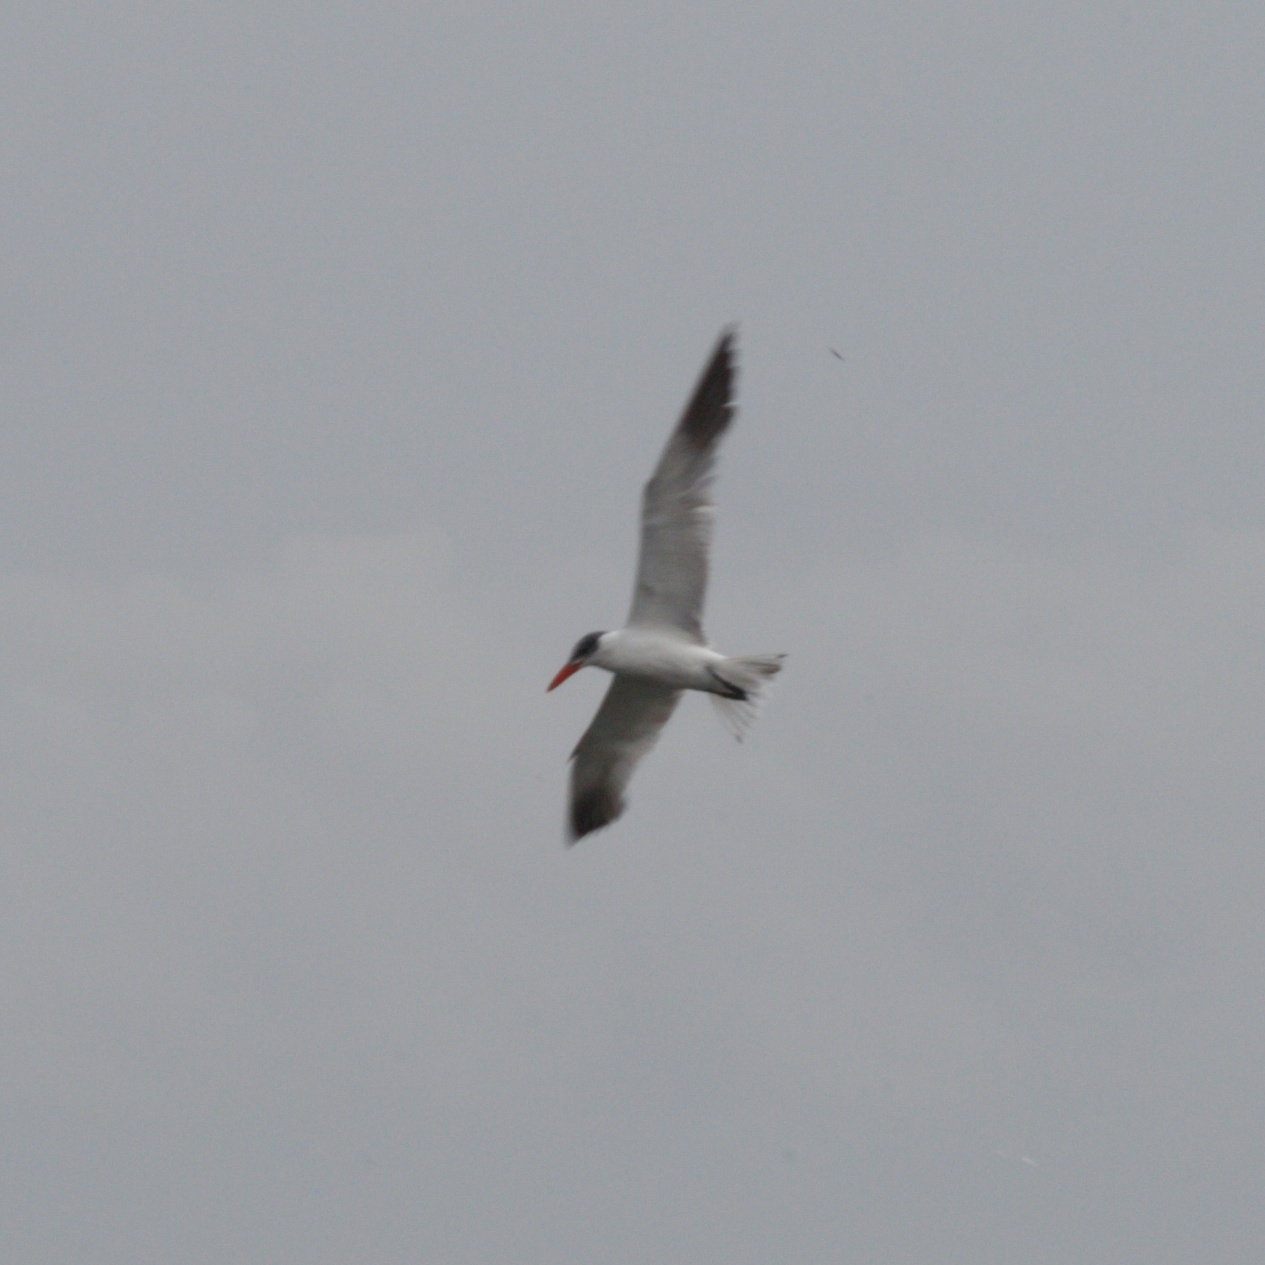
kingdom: Animalia
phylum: Chordata
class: Aves
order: Charadriiformes
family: Laridae
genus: Hydroprogne
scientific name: Hydroprogne caspia
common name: Caspian tern
